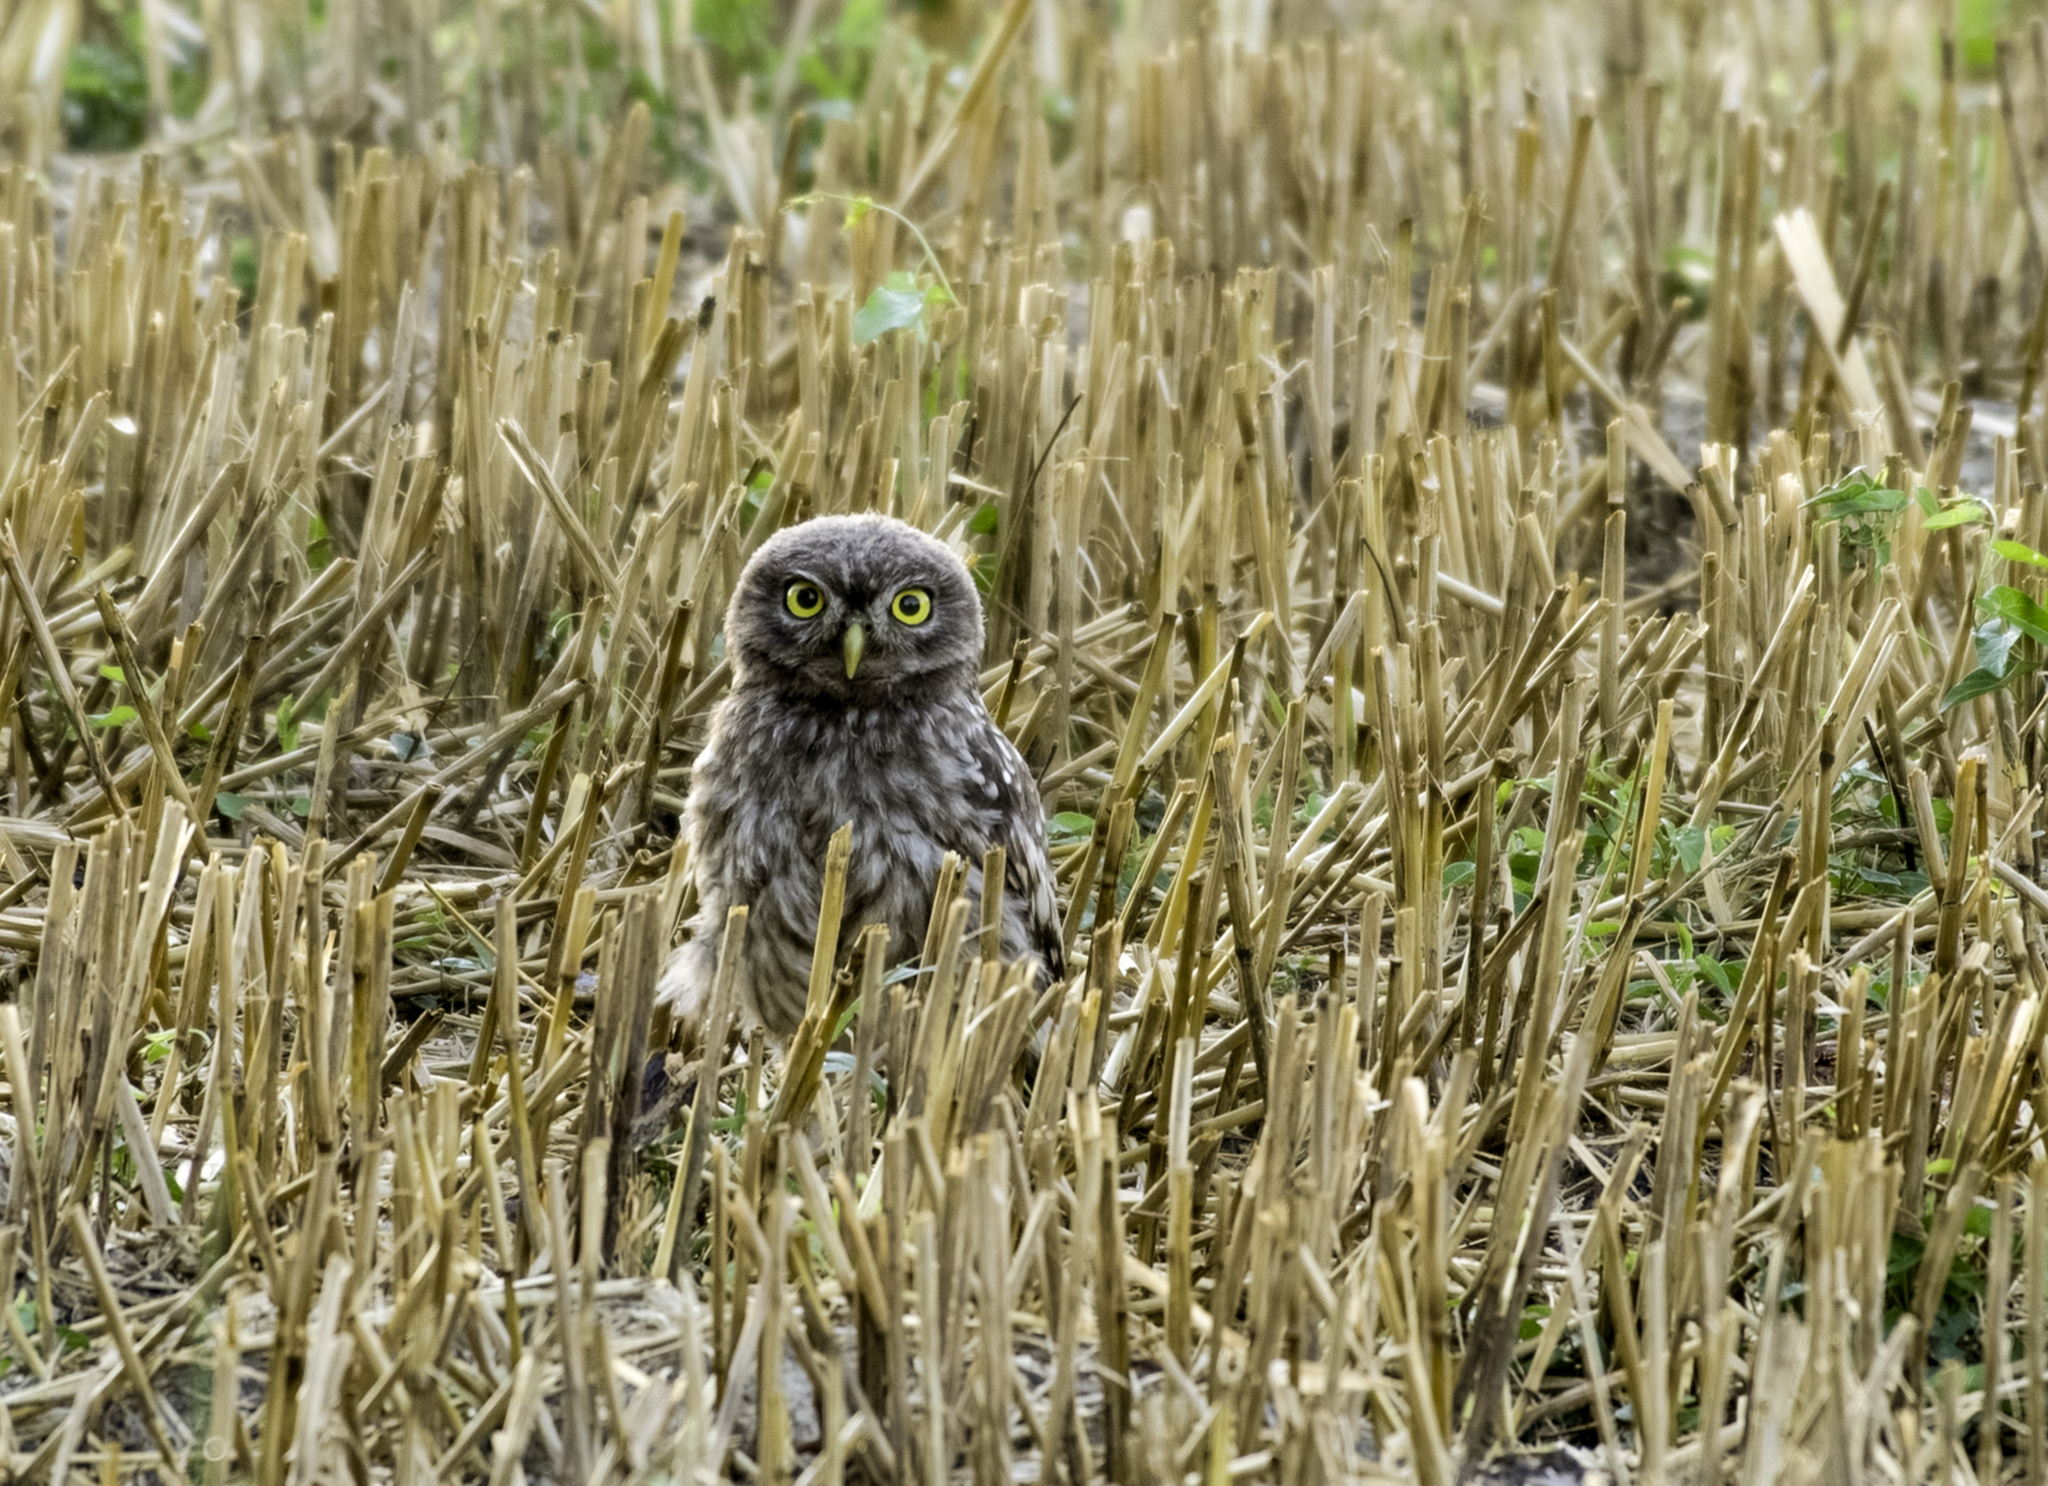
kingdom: Animalia
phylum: Chordata
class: Aves
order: Strigiformes
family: Strigidae
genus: Athene
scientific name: Athene noctua
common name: Little owl
